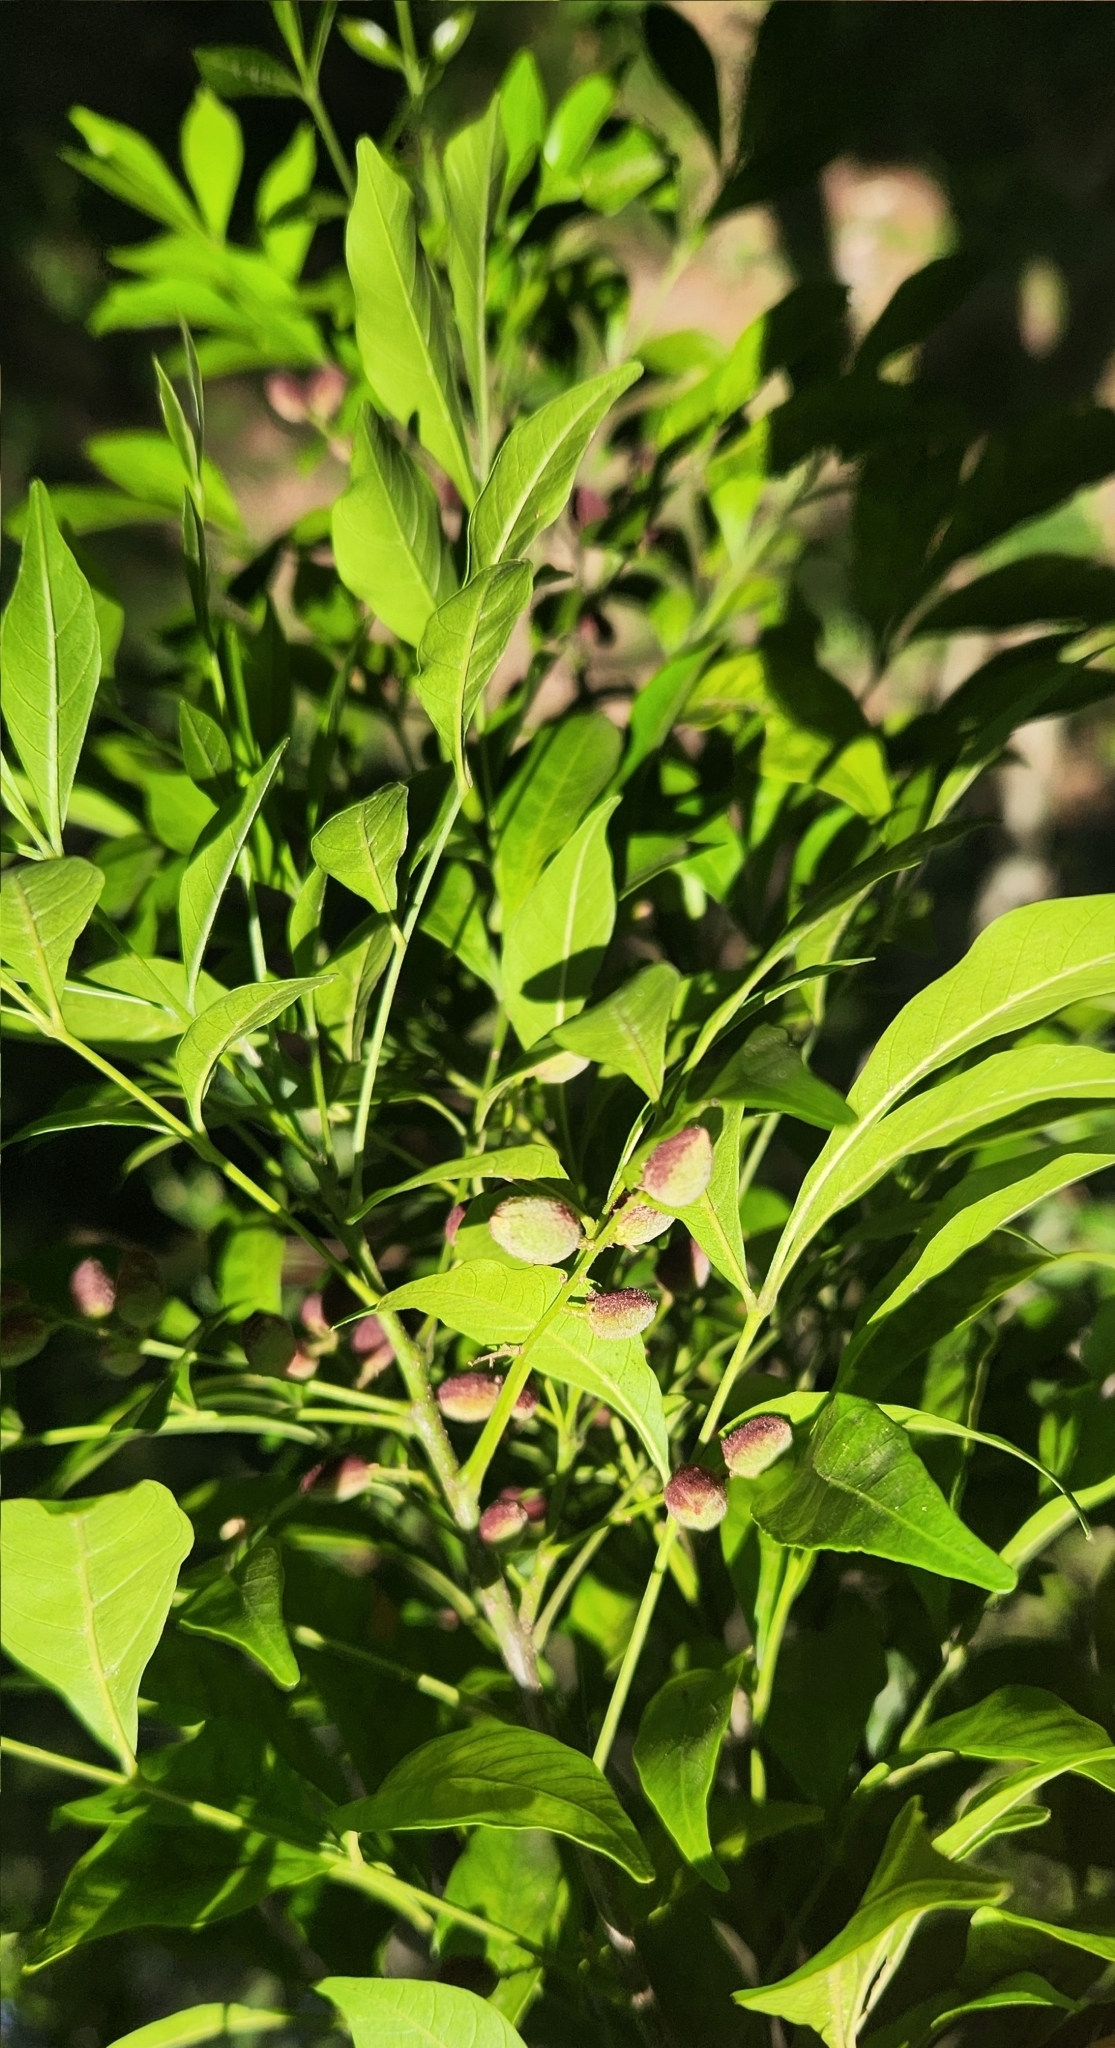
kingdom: Plantae
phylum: Tracheophyta
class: Magnoliopsida
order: Sapindales
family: Meliaceae
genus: Trichilia
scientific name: Trichilia elegans
